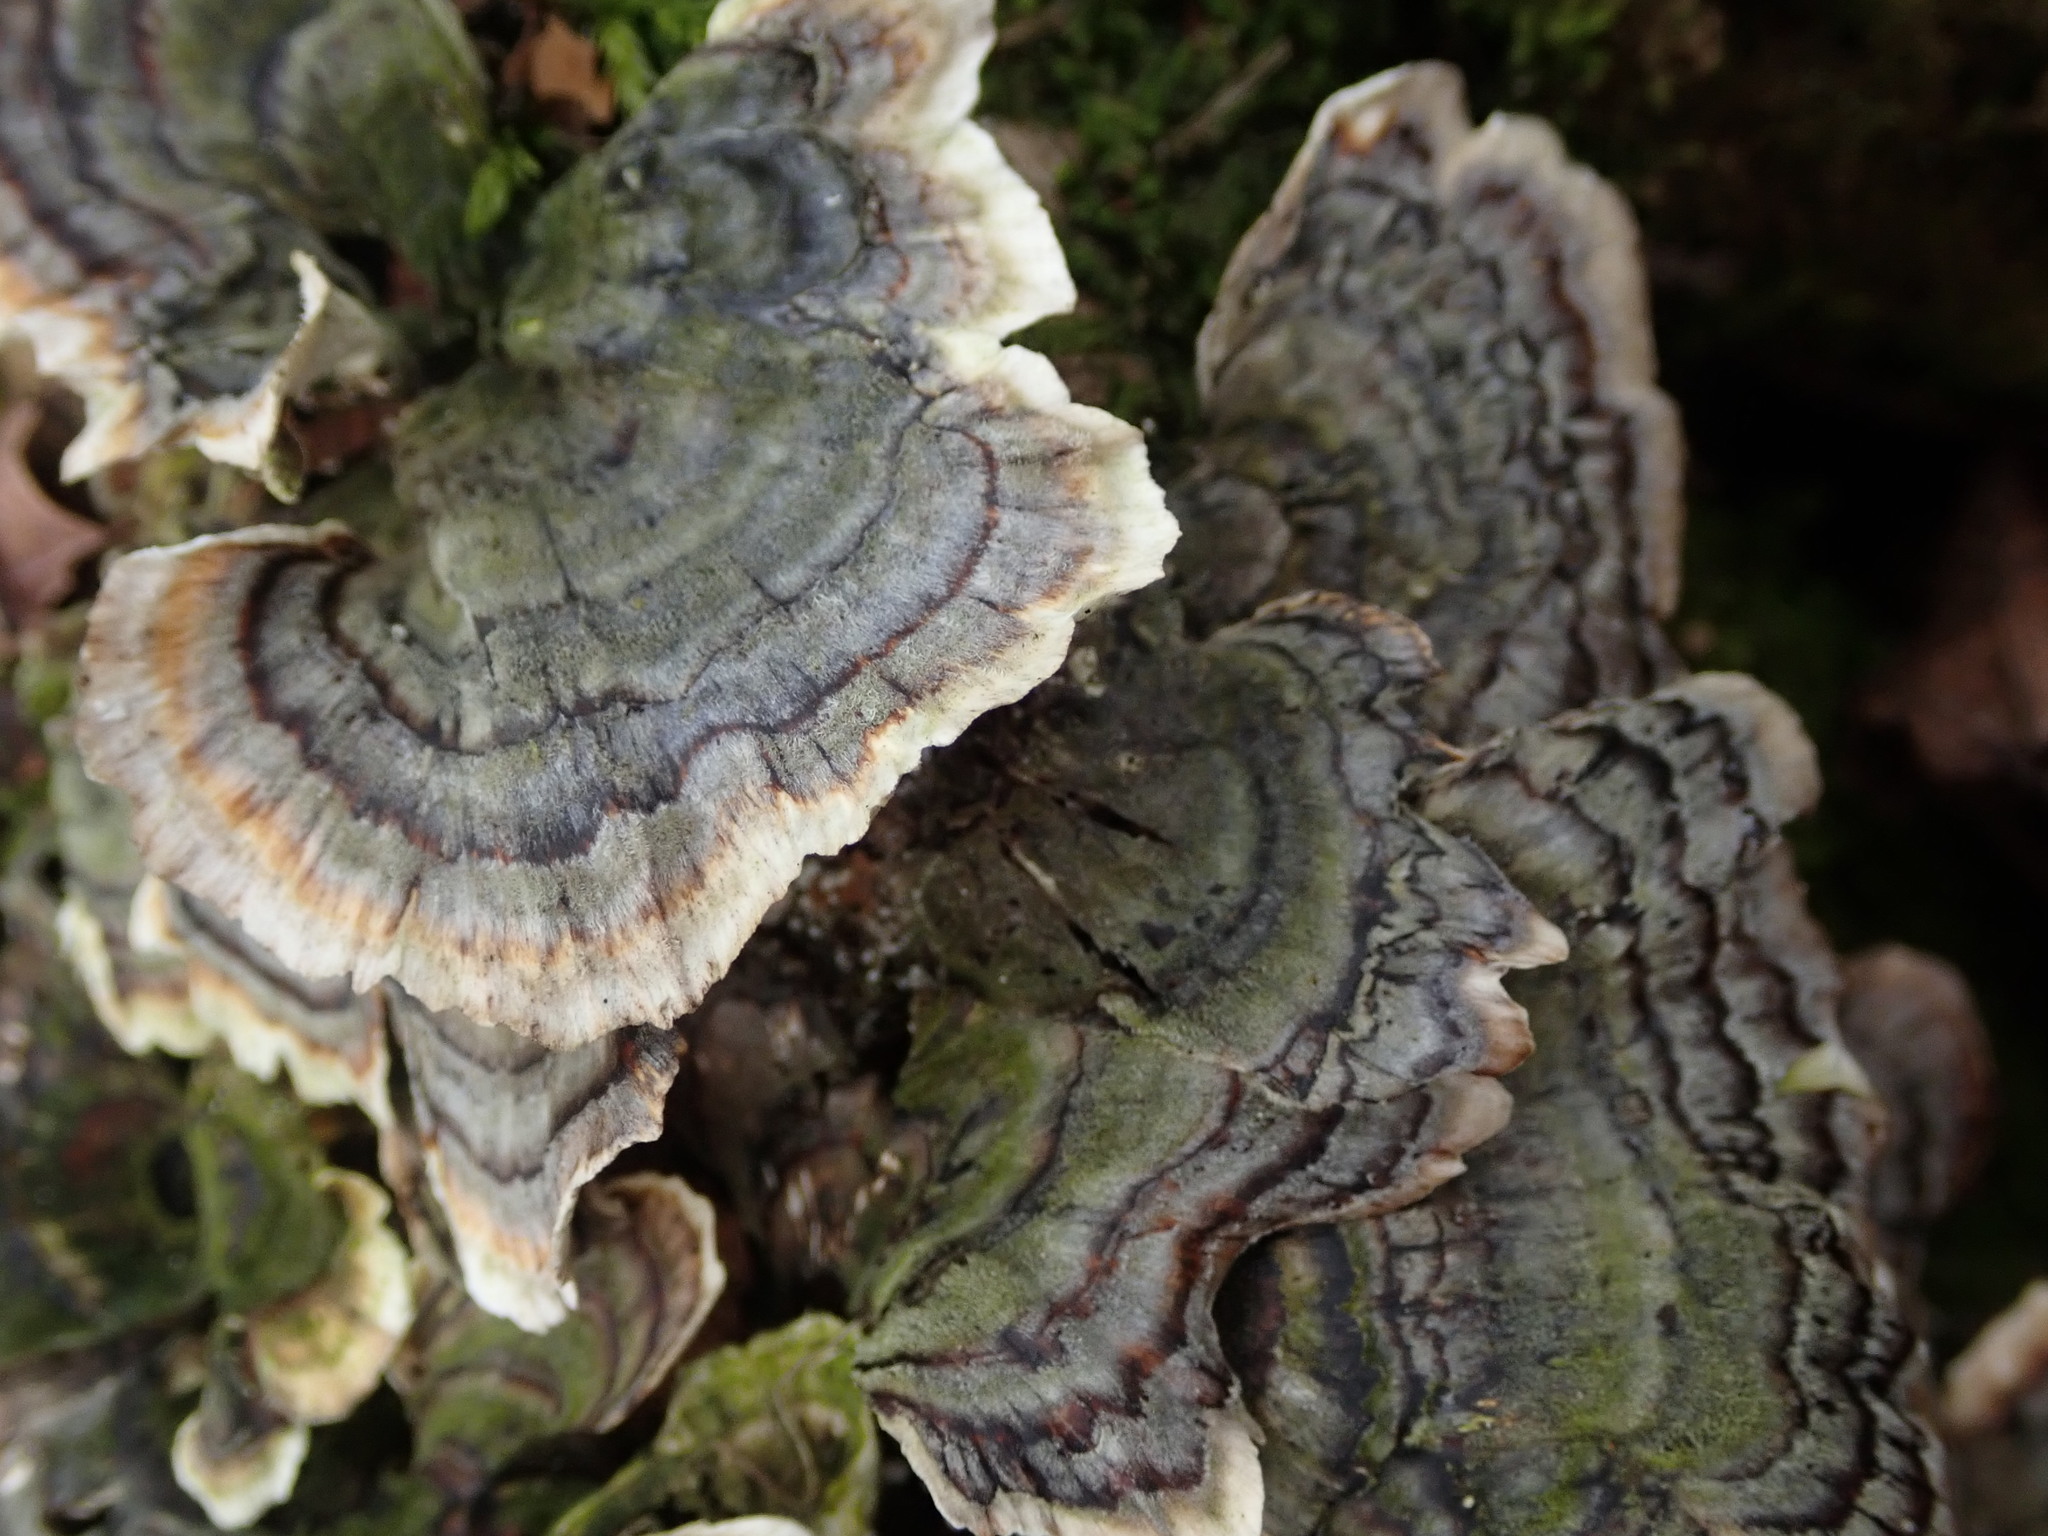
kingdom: Fungi
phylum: Basidiomycota
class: Agaricomycetes
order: Polyporales
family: Polyporaceae
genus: Trametes
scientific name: Trametes versicolor
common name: Turkeytail
